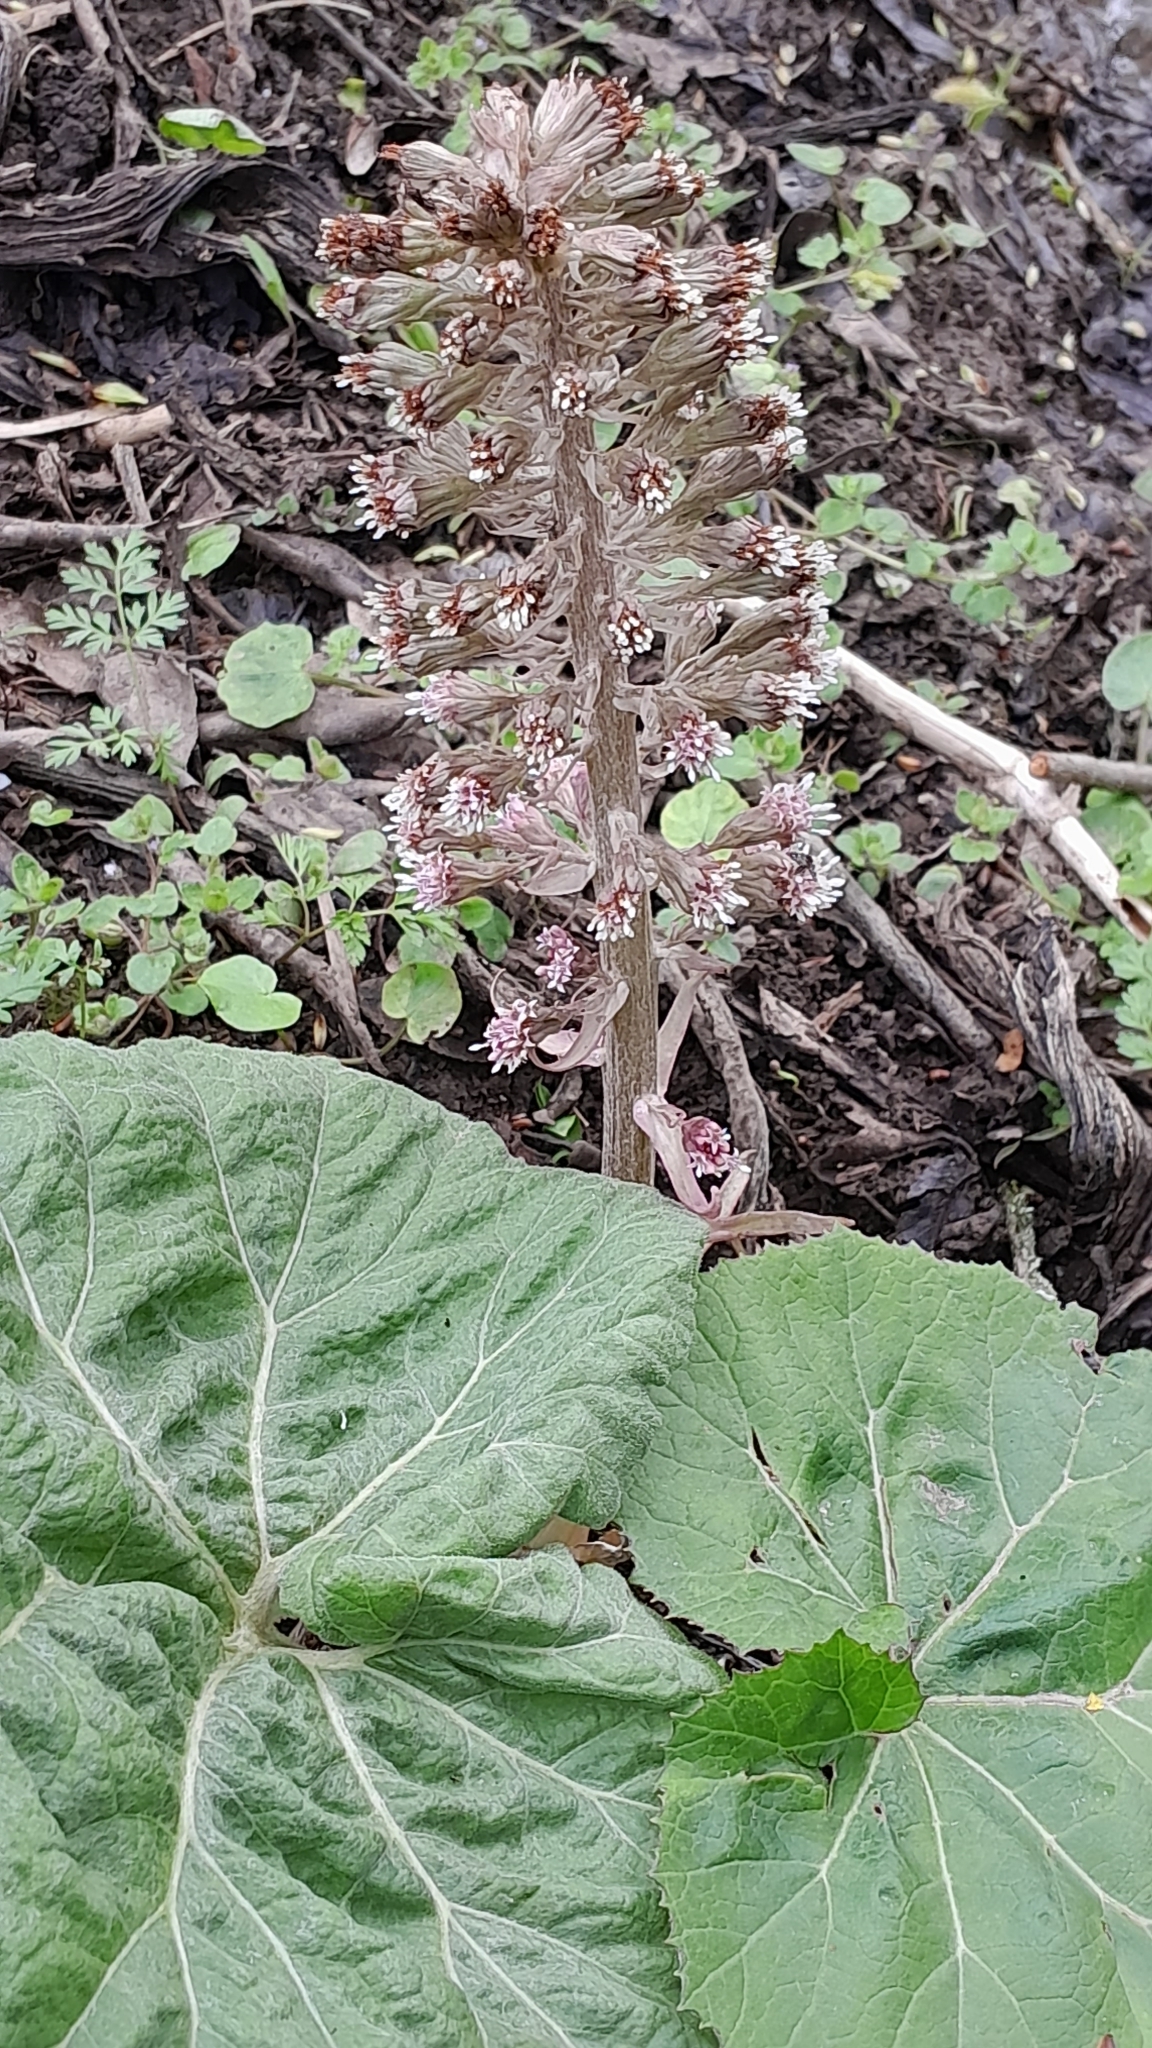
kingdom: Plantae
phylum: Tracheophyta
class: Magnoliopsida
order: Asterales
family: Asteraceae
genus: Petasites
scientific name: Petasites hybridus
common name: Butterbur
